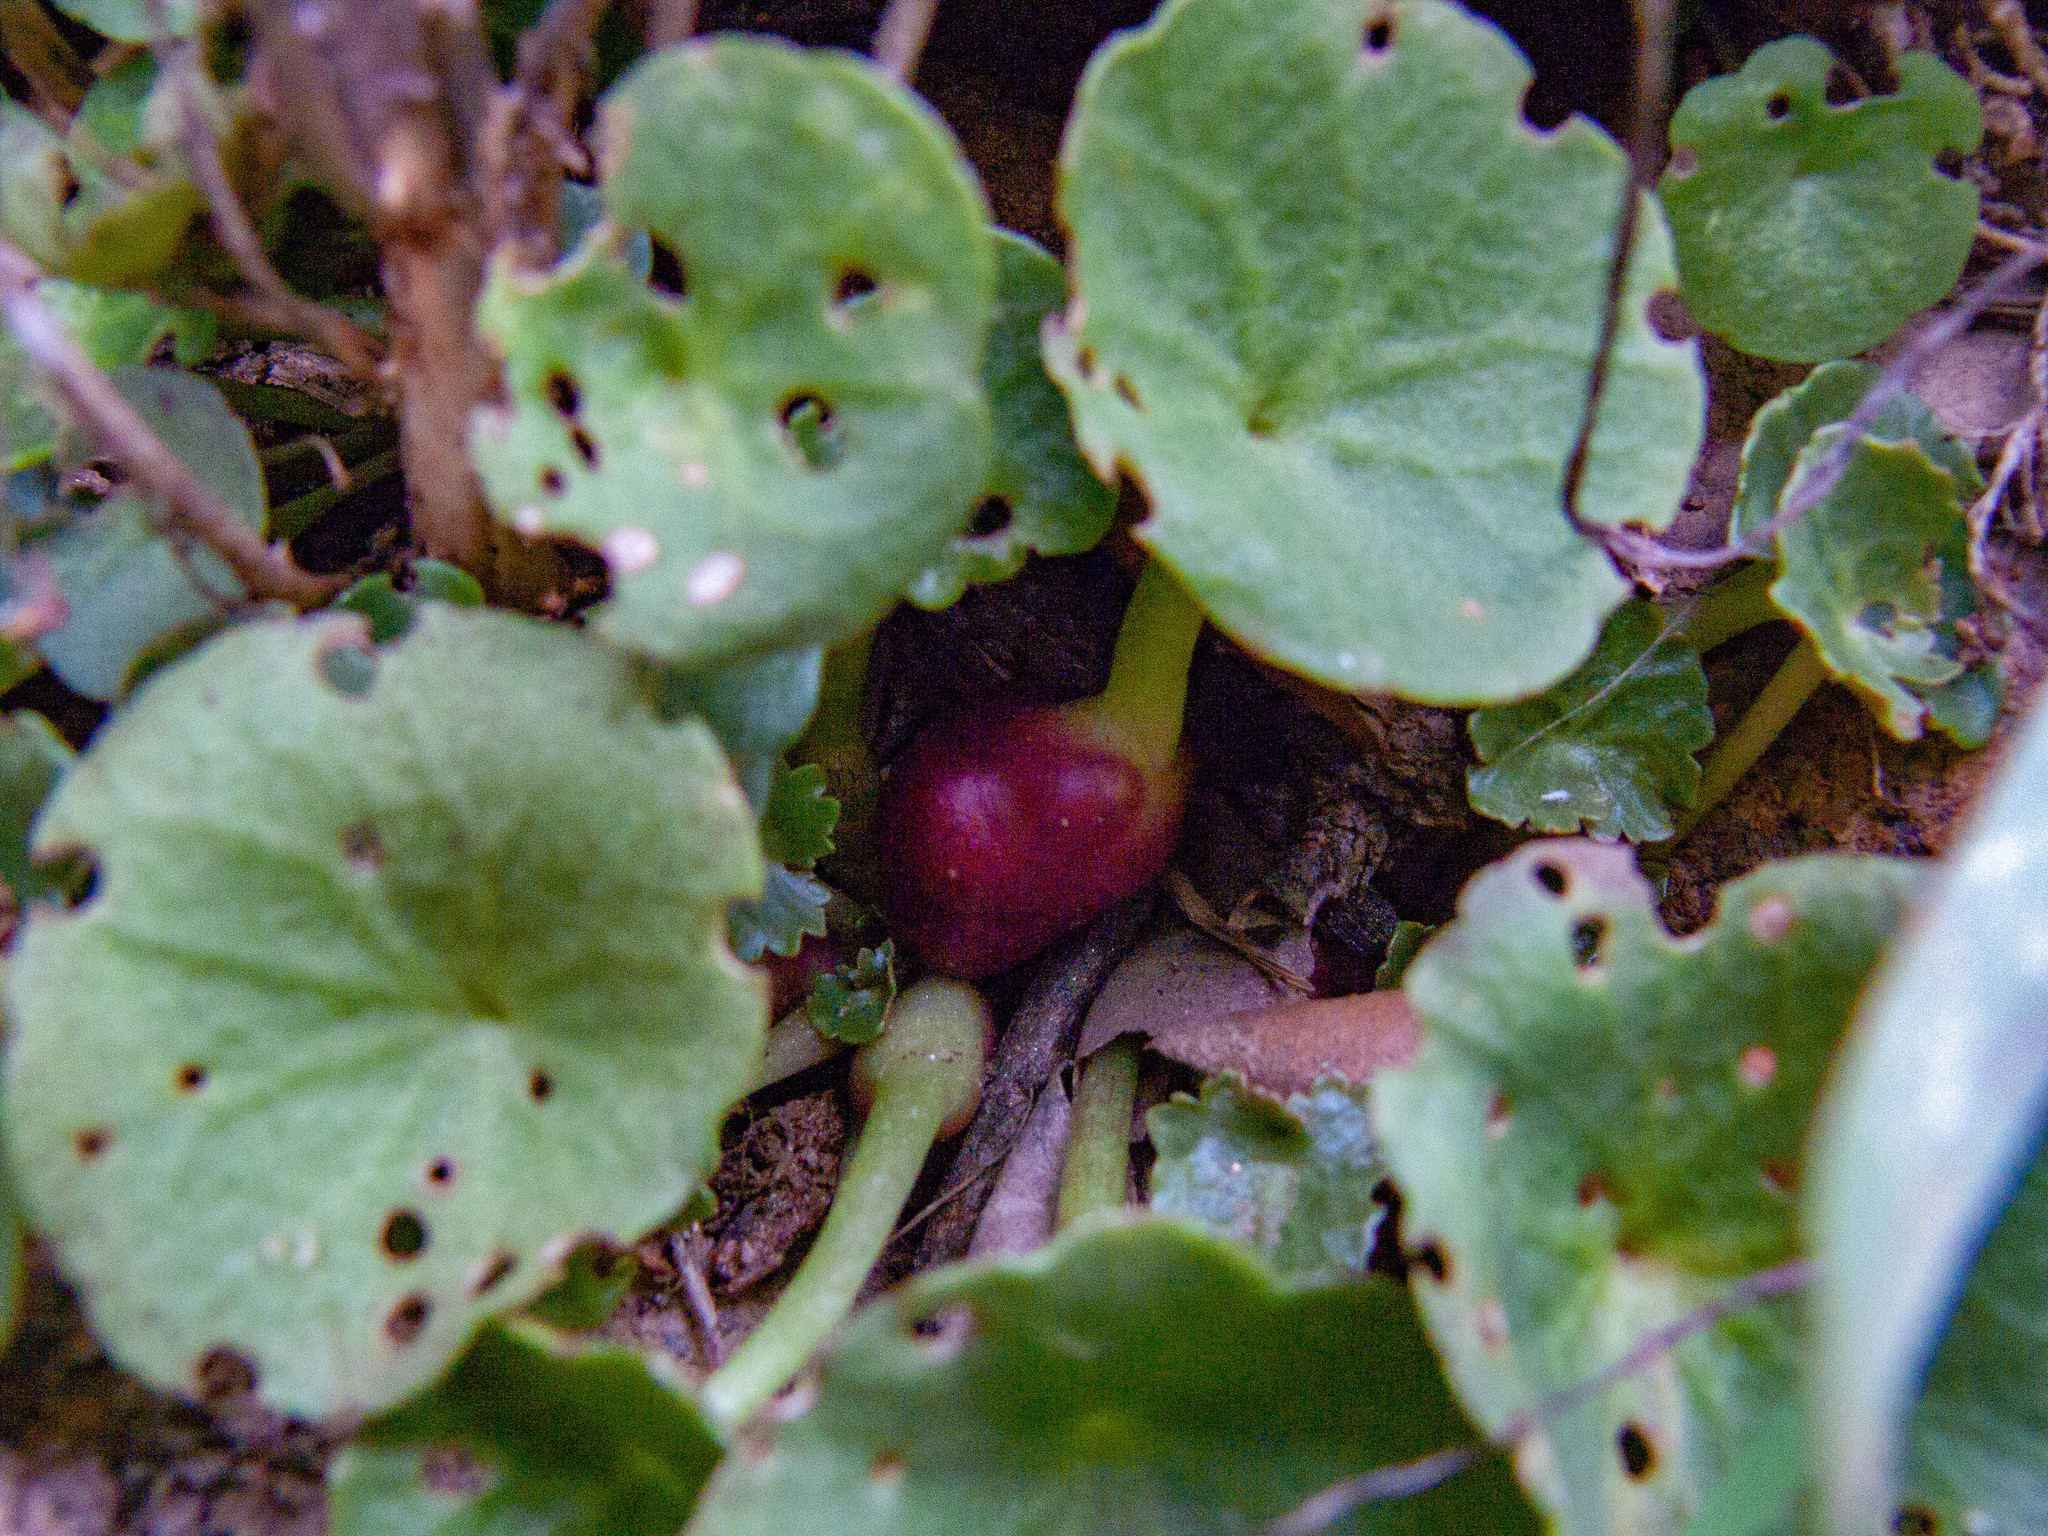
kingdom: Plantae
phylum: Tracheophyta
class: Magnoliopsida
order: Saxifragales
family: Crassulaceae
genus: Umbilicus
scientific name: Umbilicus rupestris
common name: Navelwort
